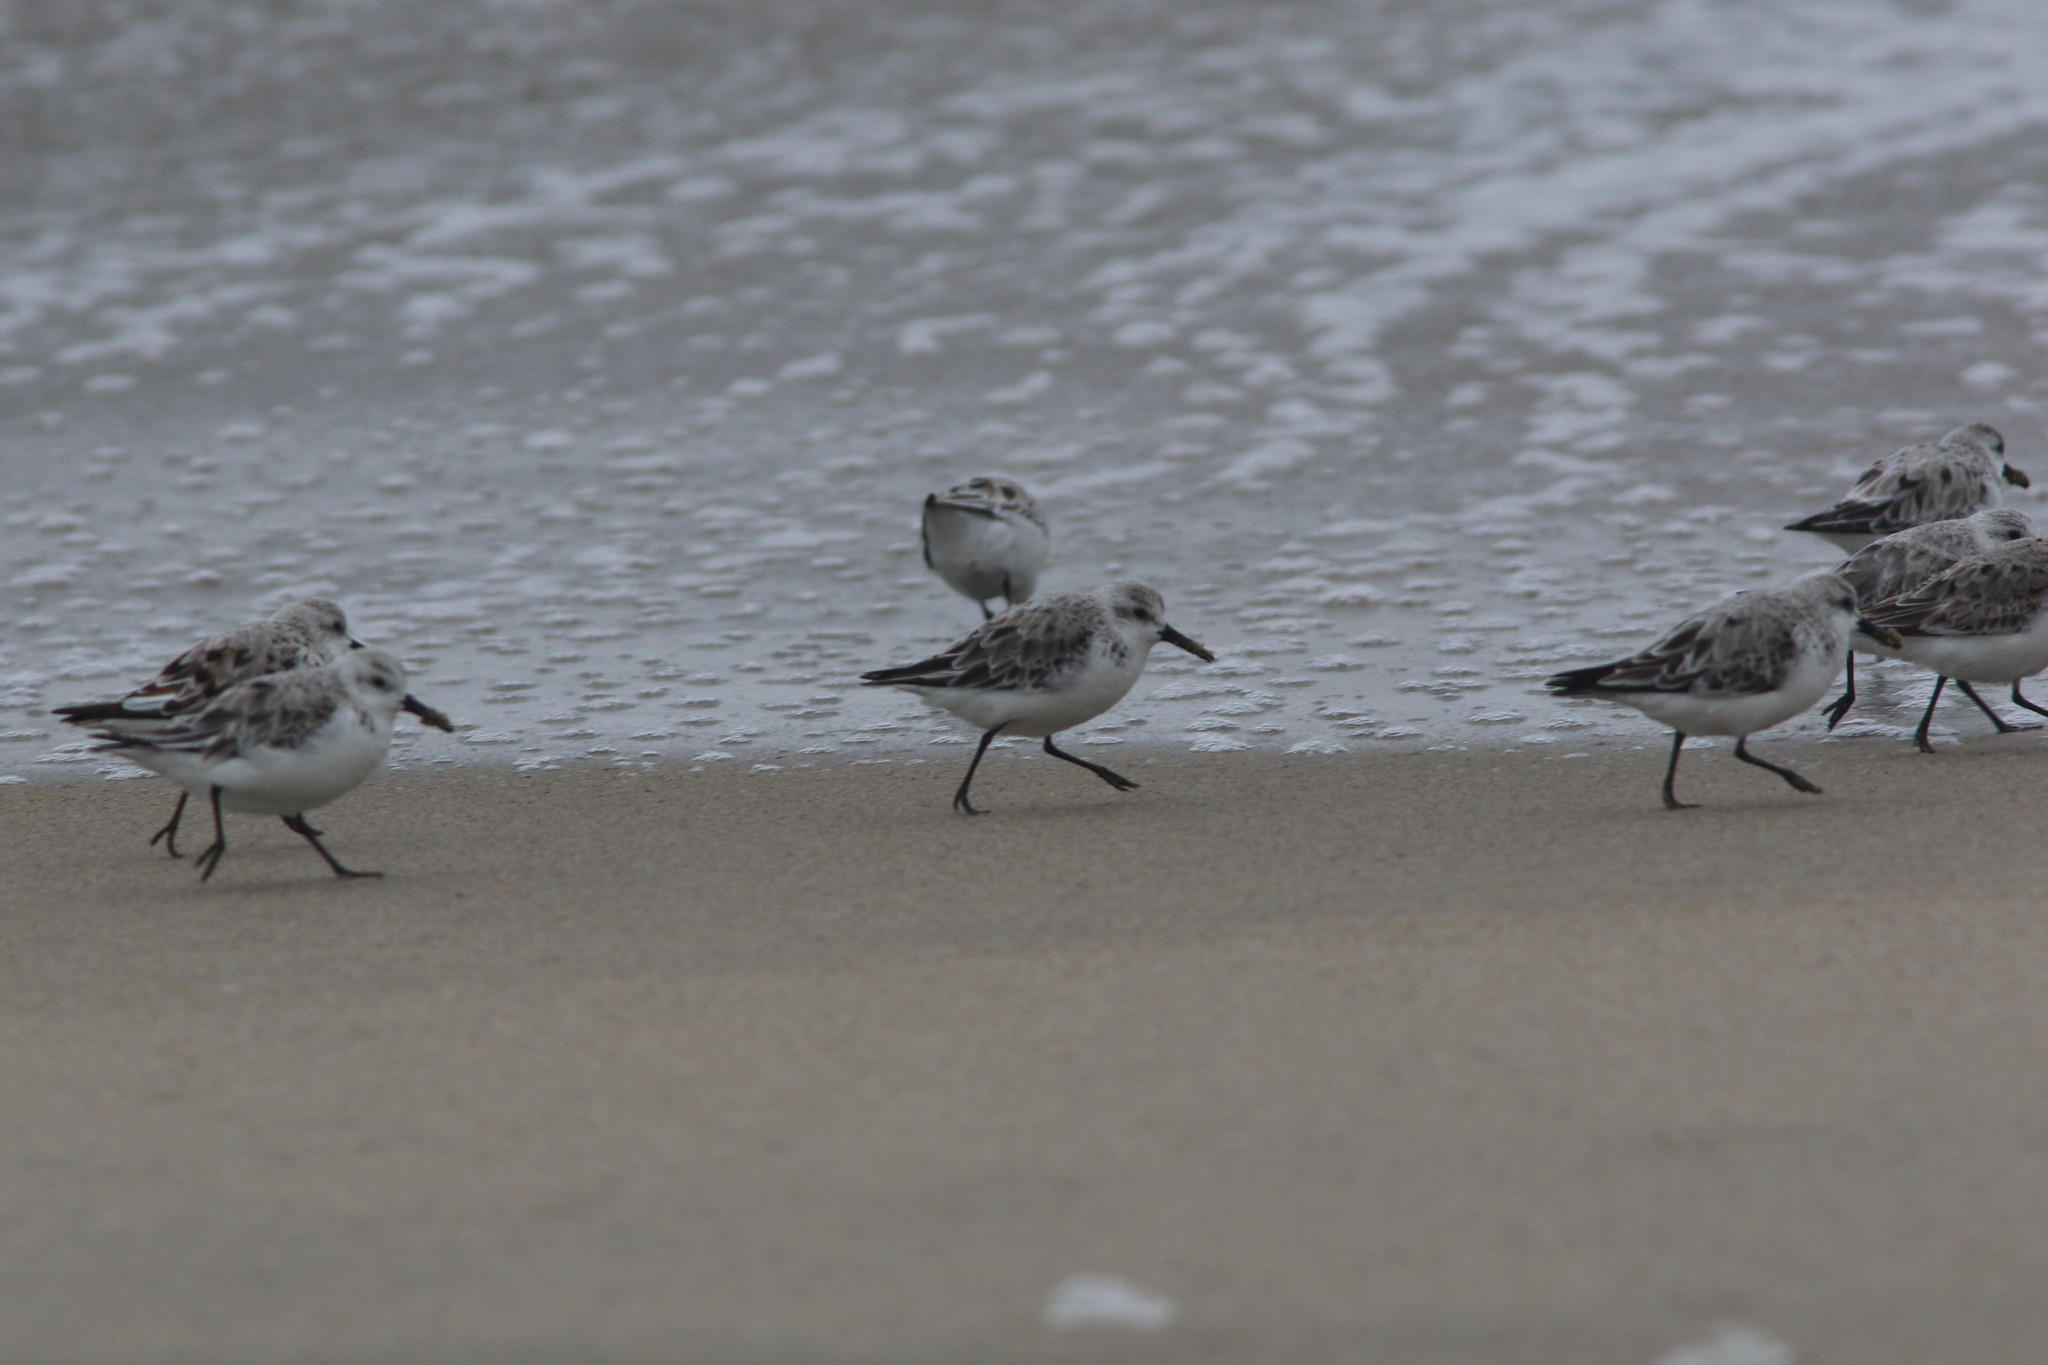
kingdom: Animalia
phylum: Chordata
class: Aves
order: Charadriiformes
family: Scolopacidae
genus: Calidris
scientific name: Calidris alba
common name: Sanderling
